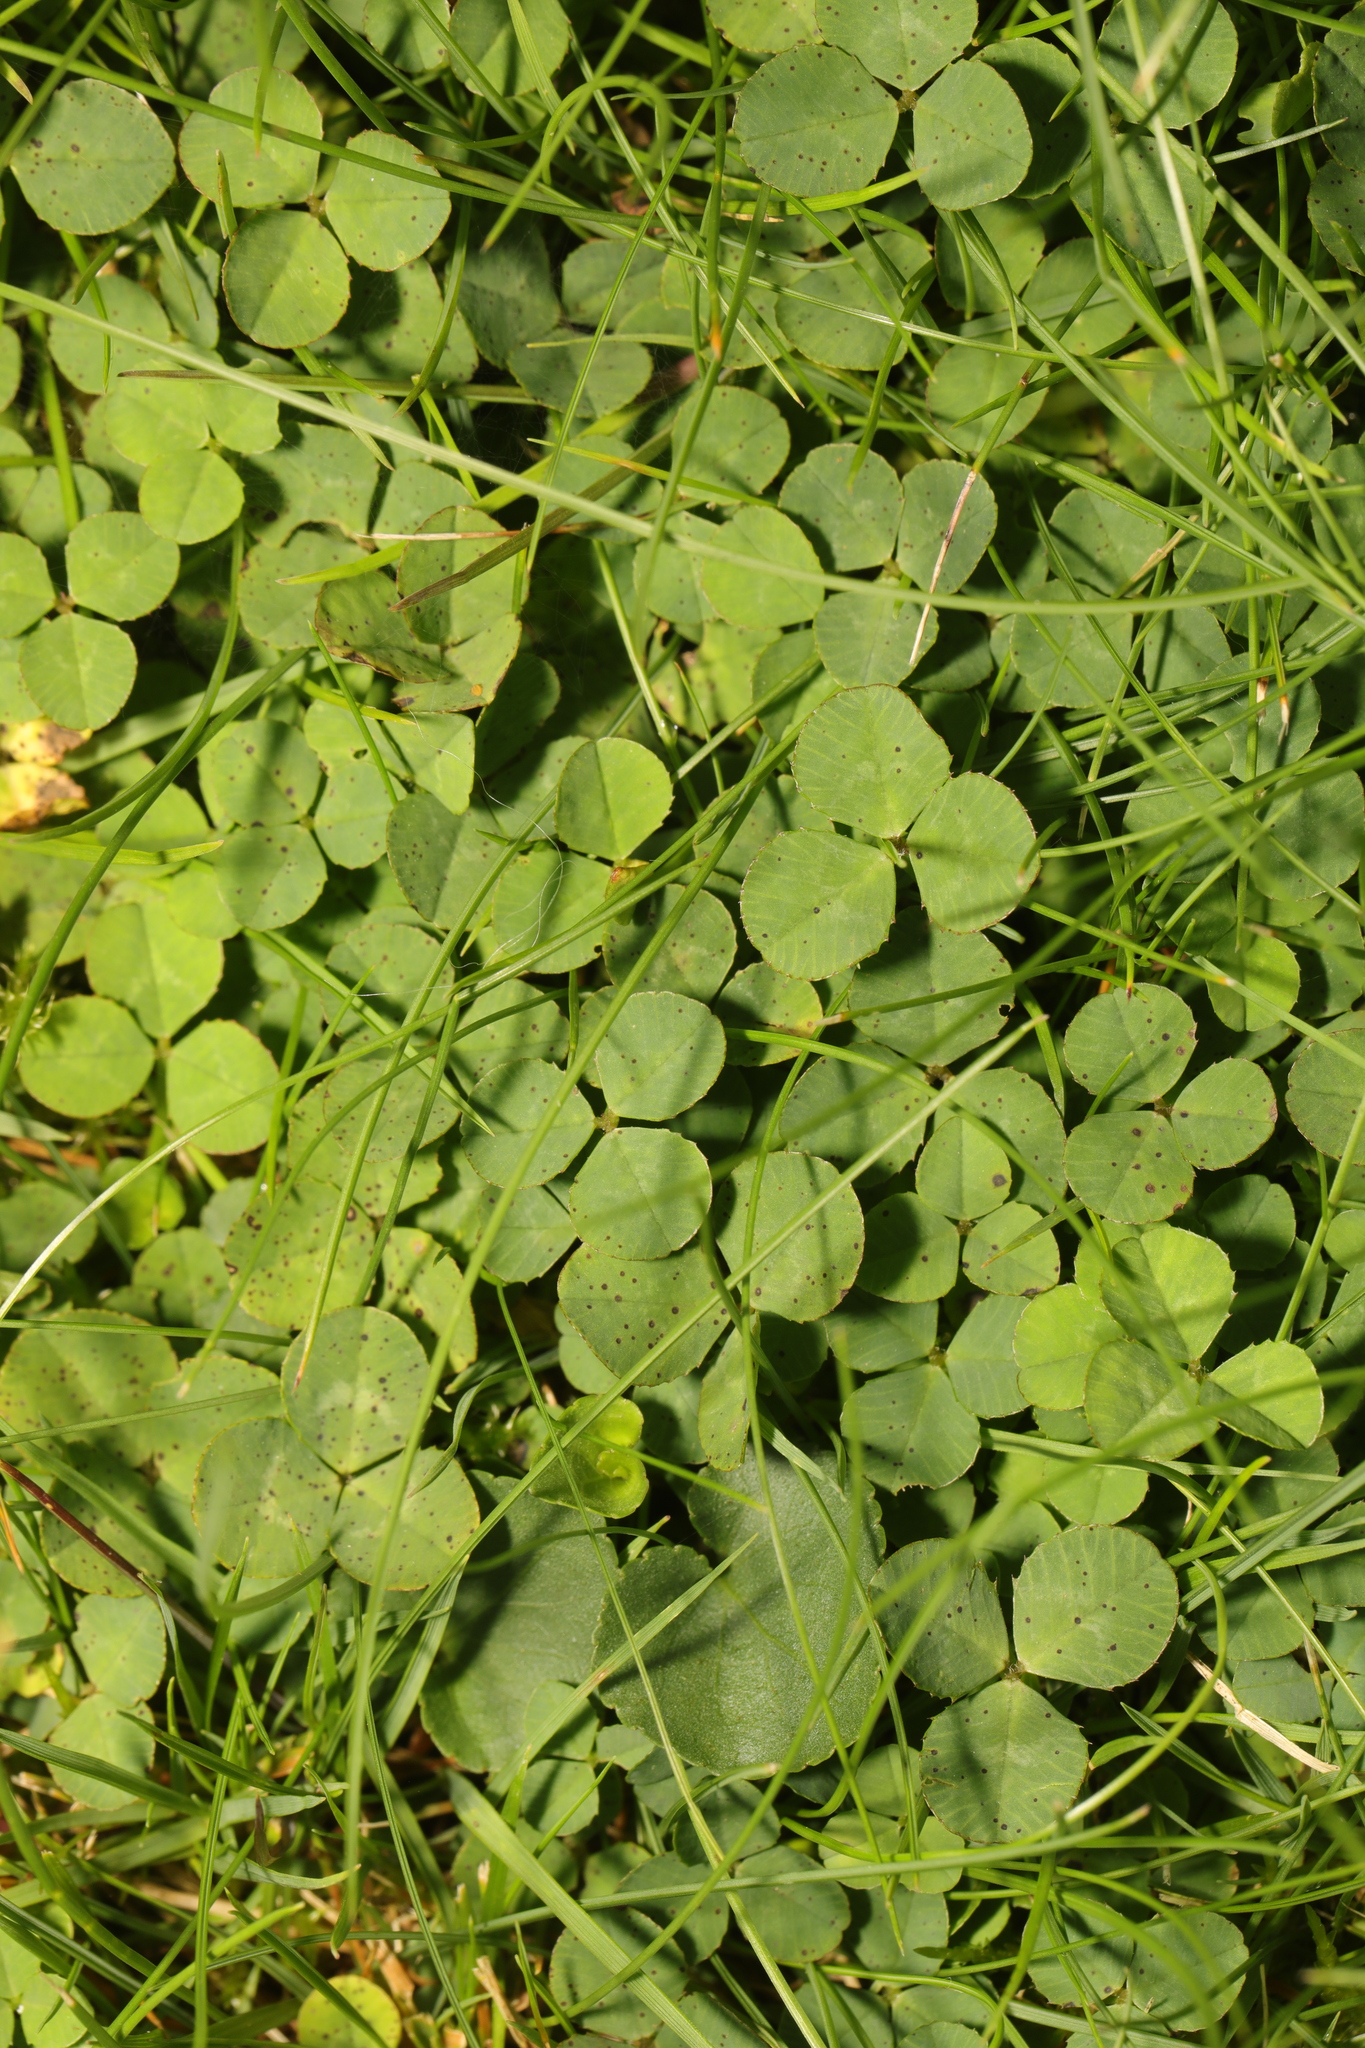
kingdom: Plantae
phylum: Tracheophyta
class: Magnoliopsida
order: Fabales
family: Fabaceae
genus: Trifolium
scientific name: Trifolium repens
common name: White clover
